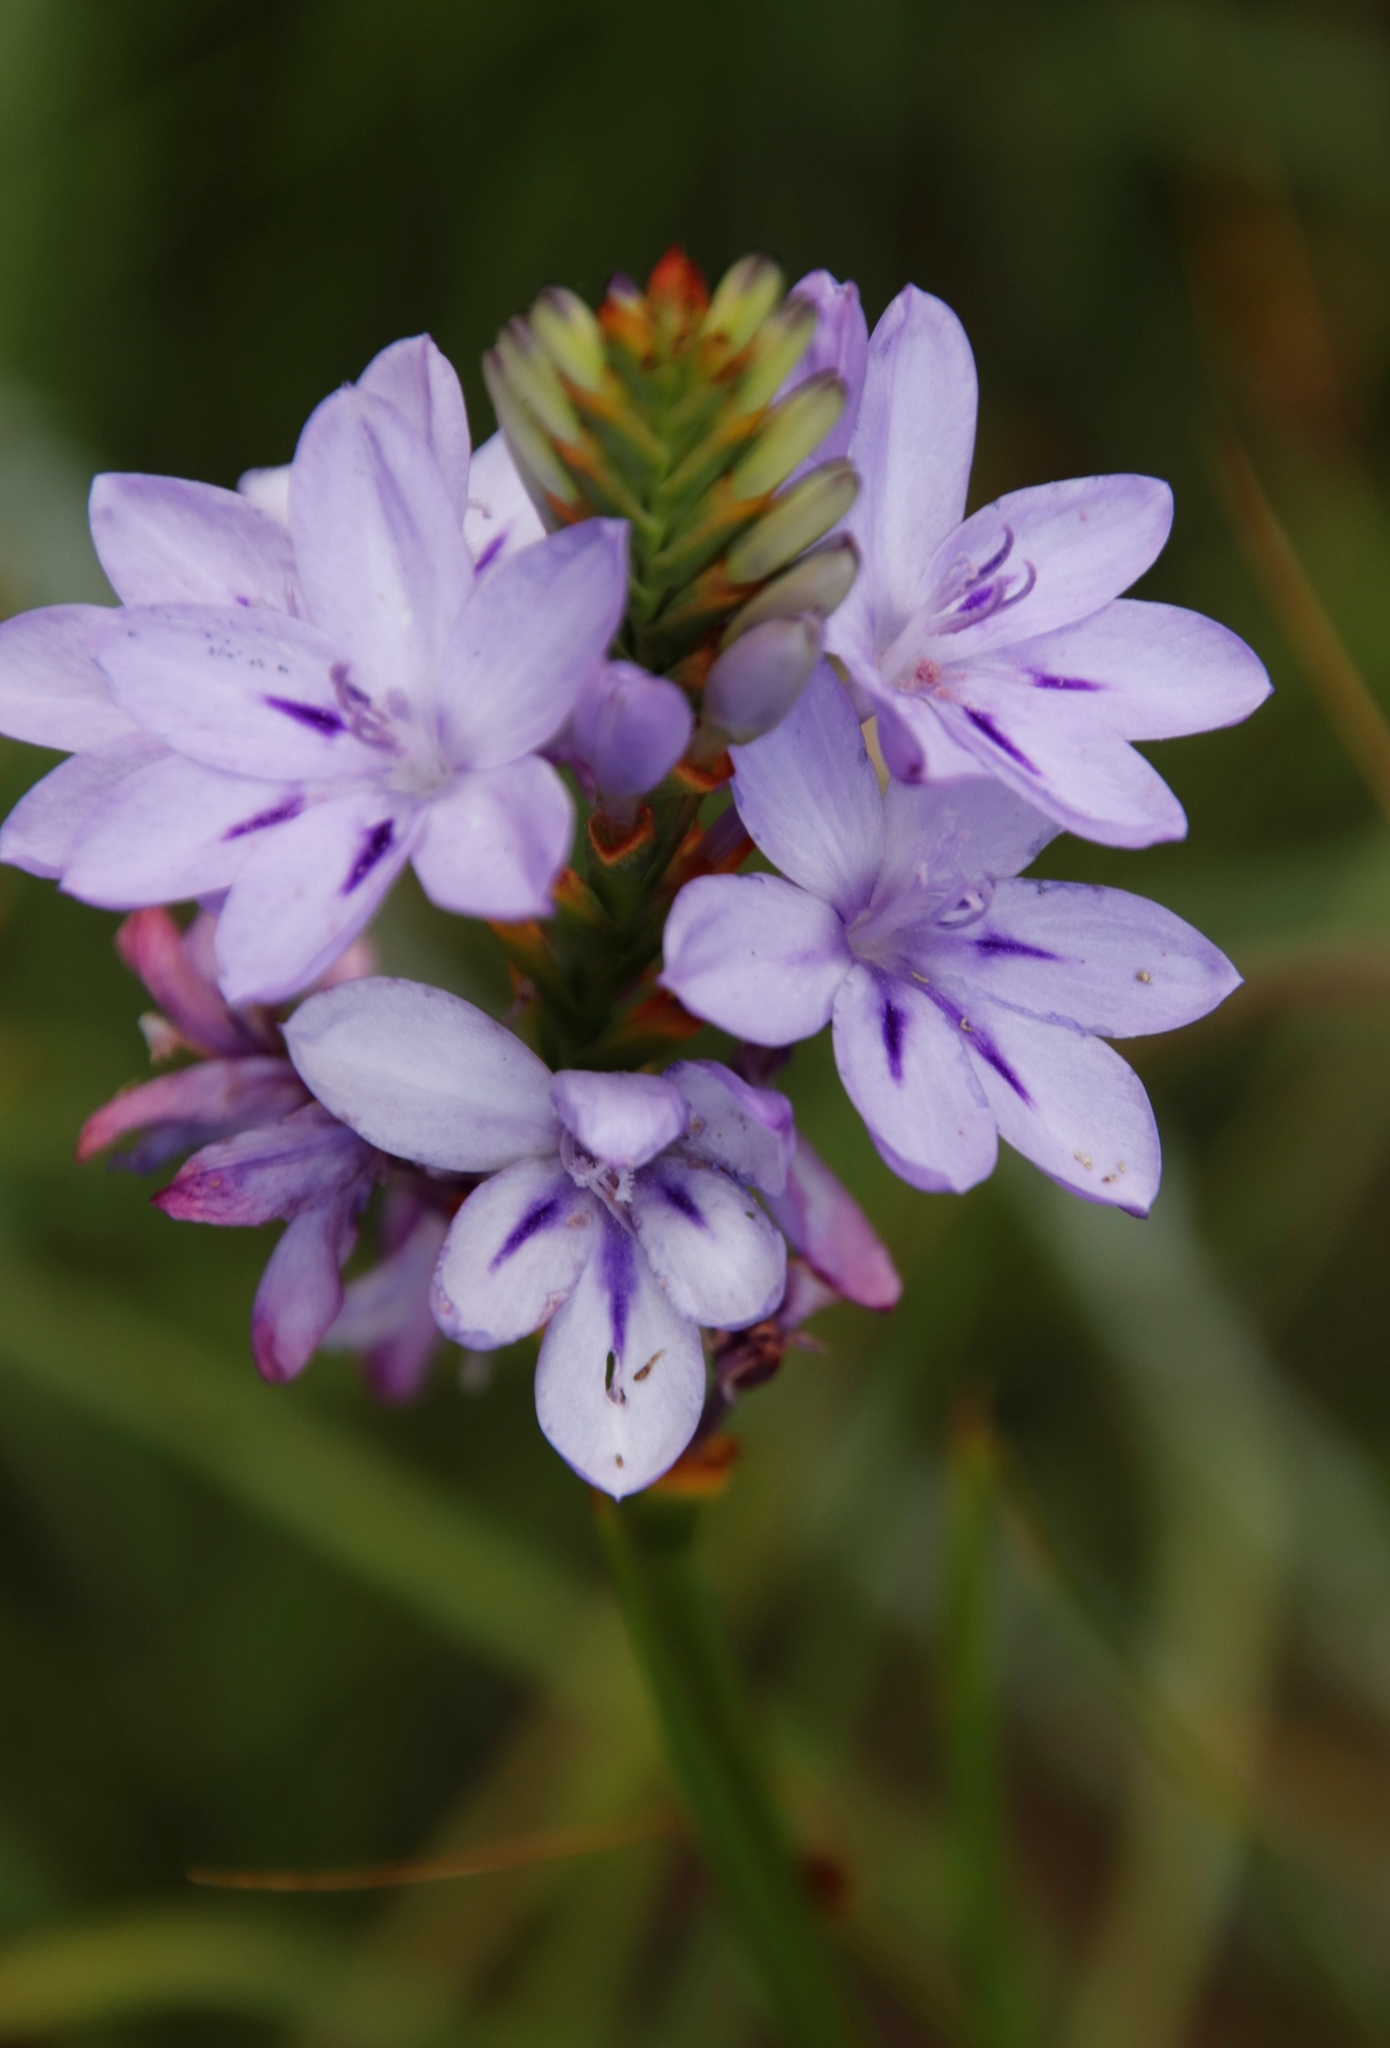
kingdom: Plantae
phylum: Tracheophyta
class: Liliopsida
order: Asparagales
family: Iridaceae
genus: Thereianthus
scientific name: Thereianthus spicatus
